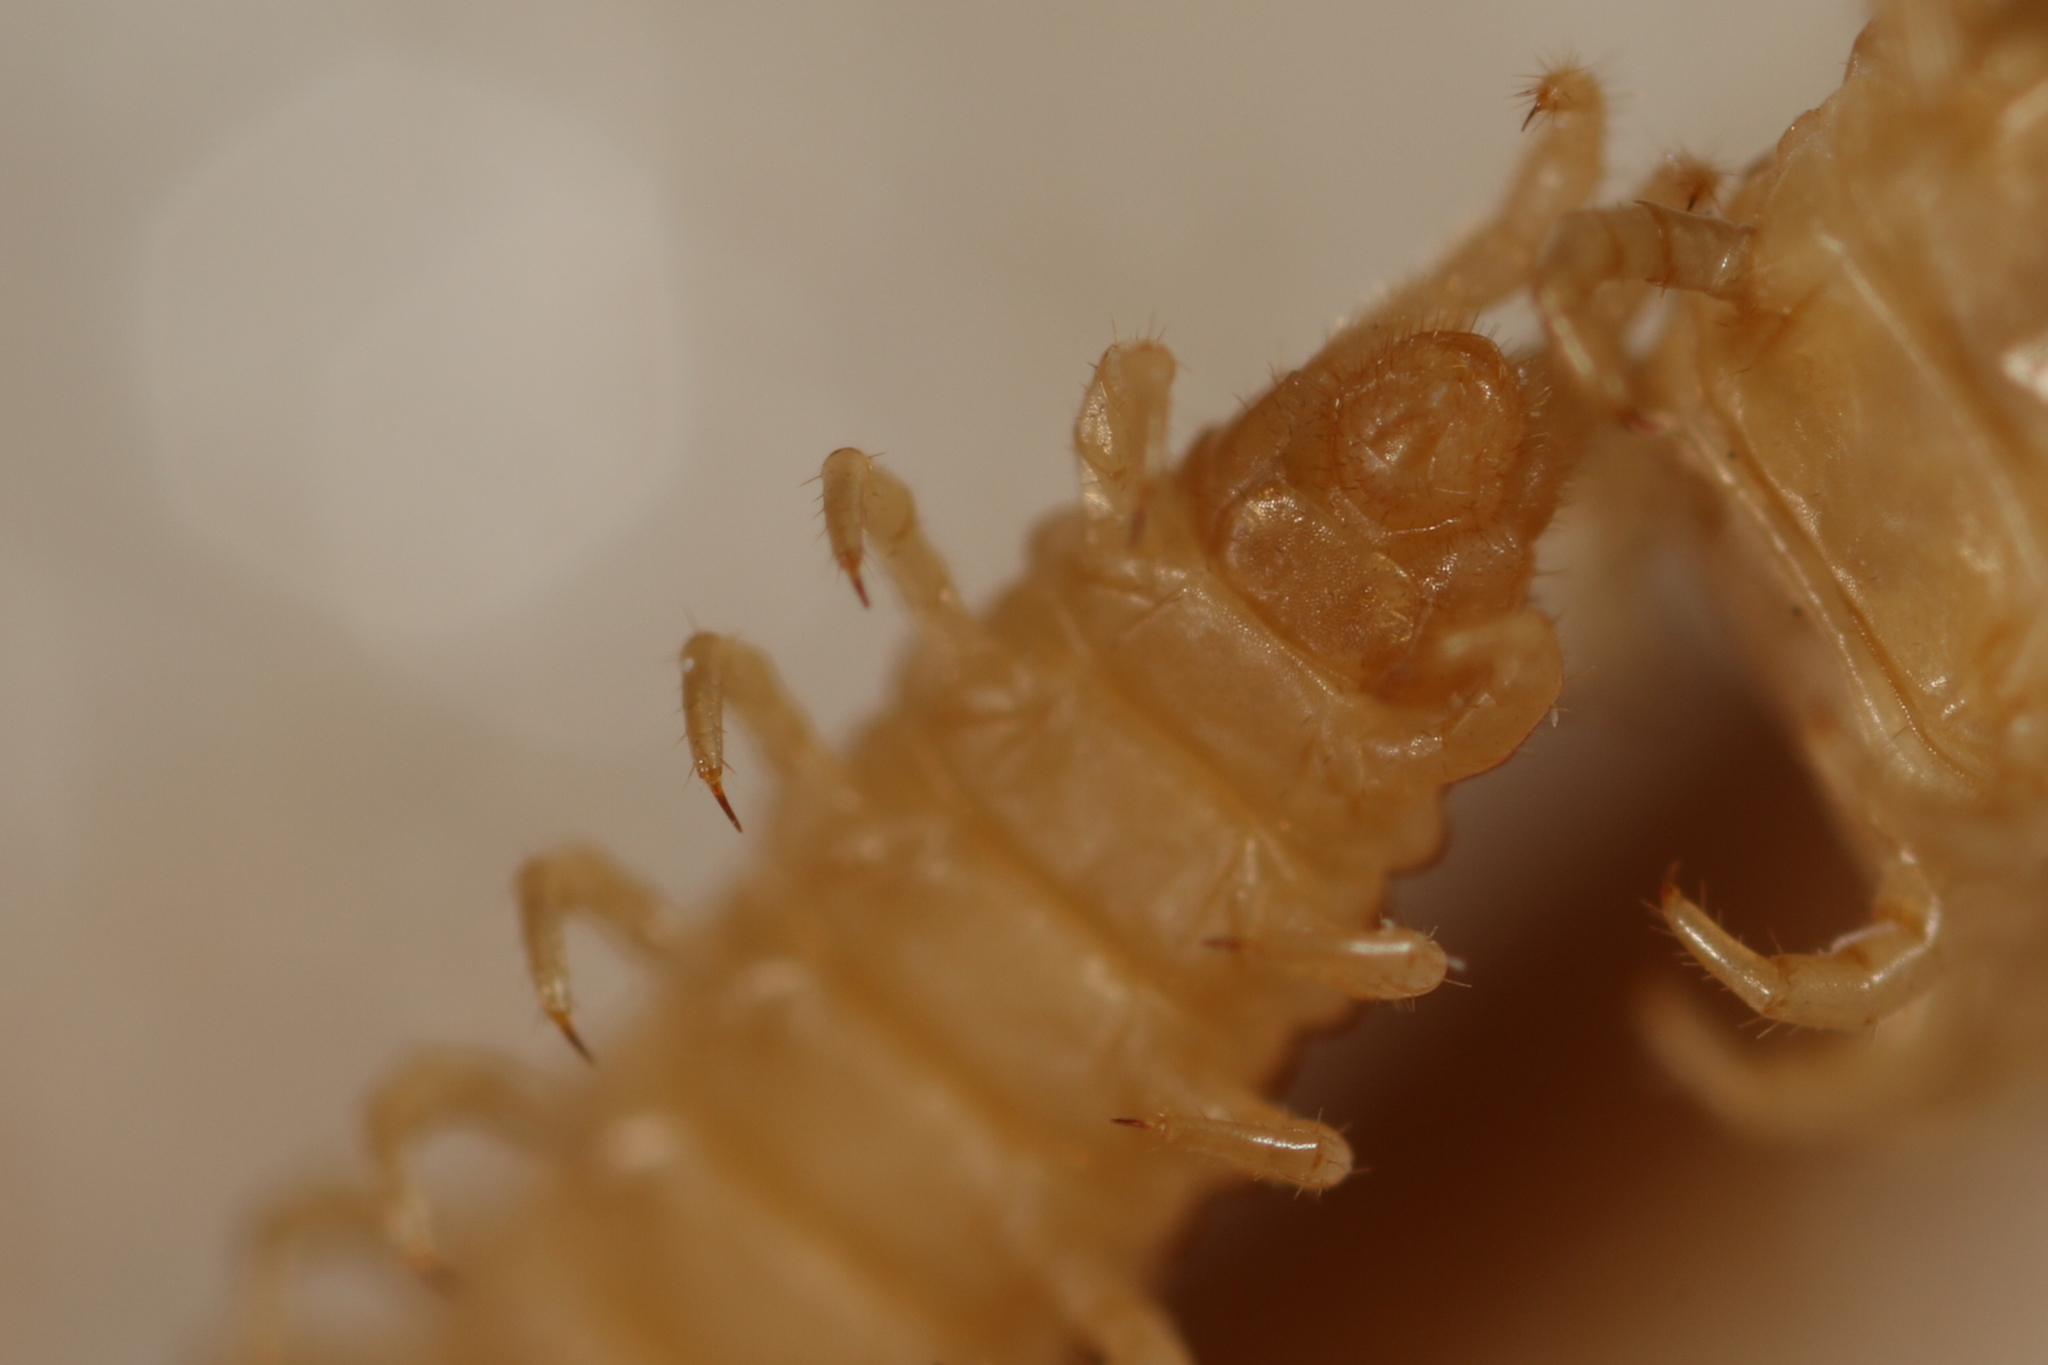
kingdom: Animalia
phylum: Arthropoda
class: Chilopoda
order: Geophilomorpha
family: Geophilidae
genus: Stenotaenia
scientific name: Stenotaenia linearis
